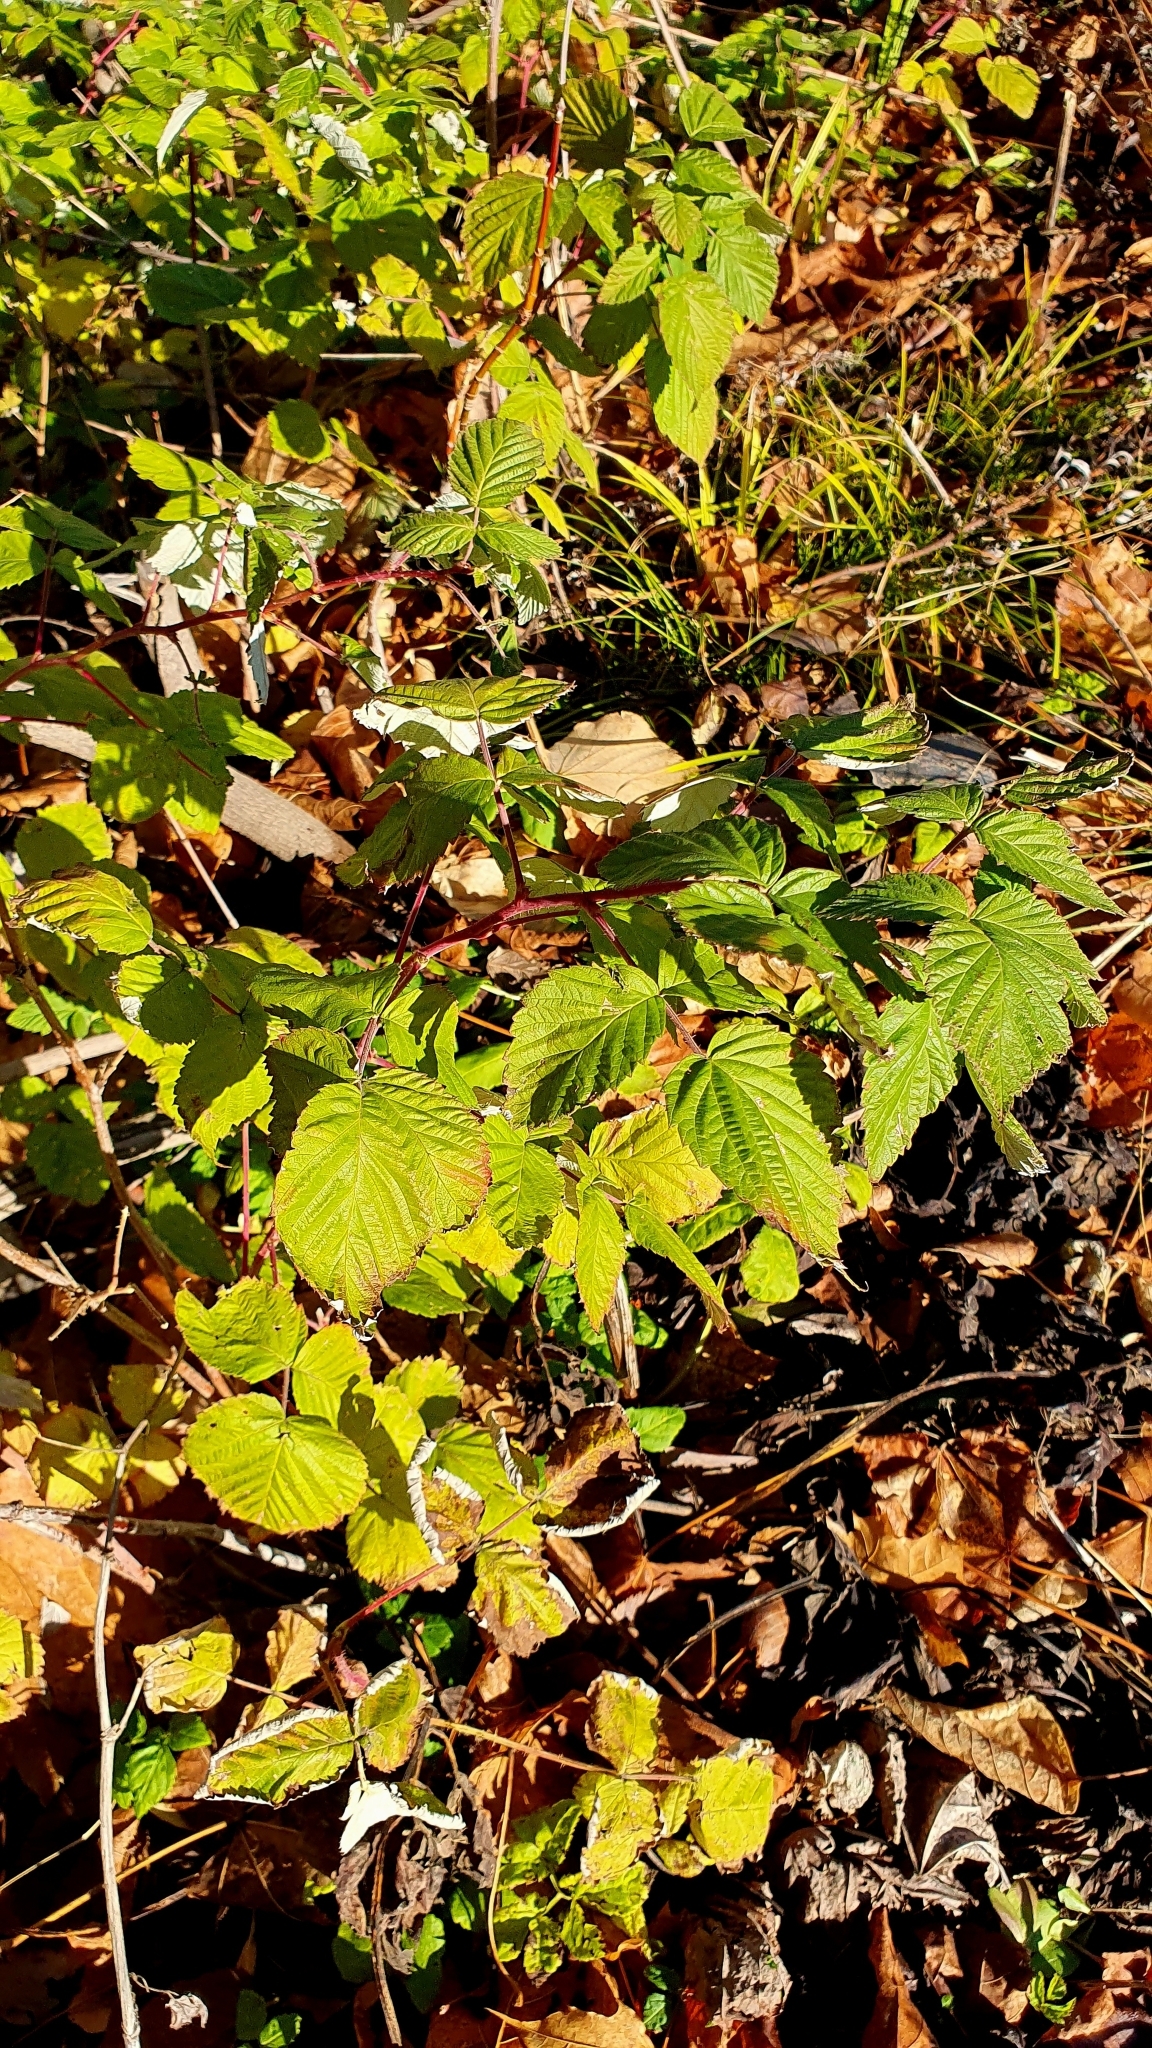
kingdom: Plantae
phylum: Tracheophyta
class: Magnoliopsida
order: Rosales
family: Rosaceae
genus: Rubus
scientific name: Rubus idaeus
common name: Raspberry
